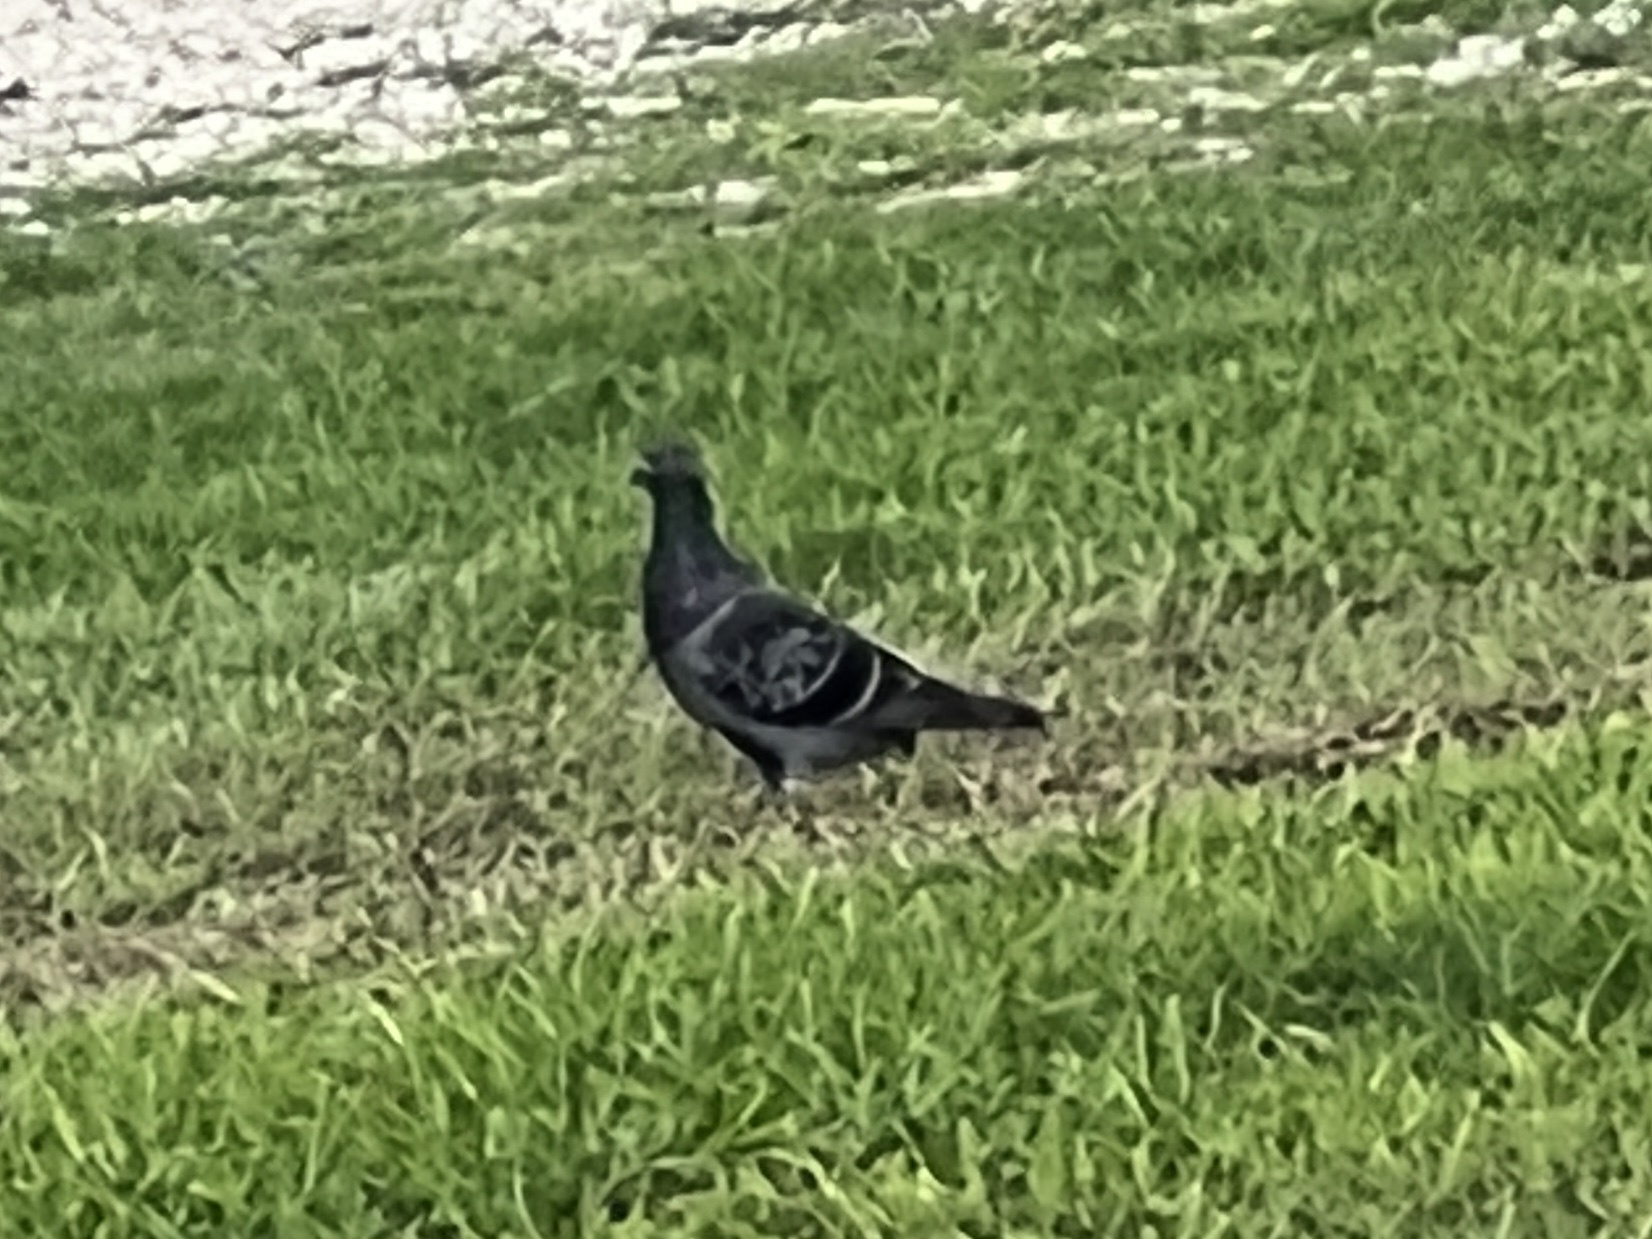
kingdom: Animalia
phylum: Chordata
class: Aves
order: Columbiformes
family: Columbidae
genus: Columba
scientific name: Columba livia
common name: Rock pigeon
